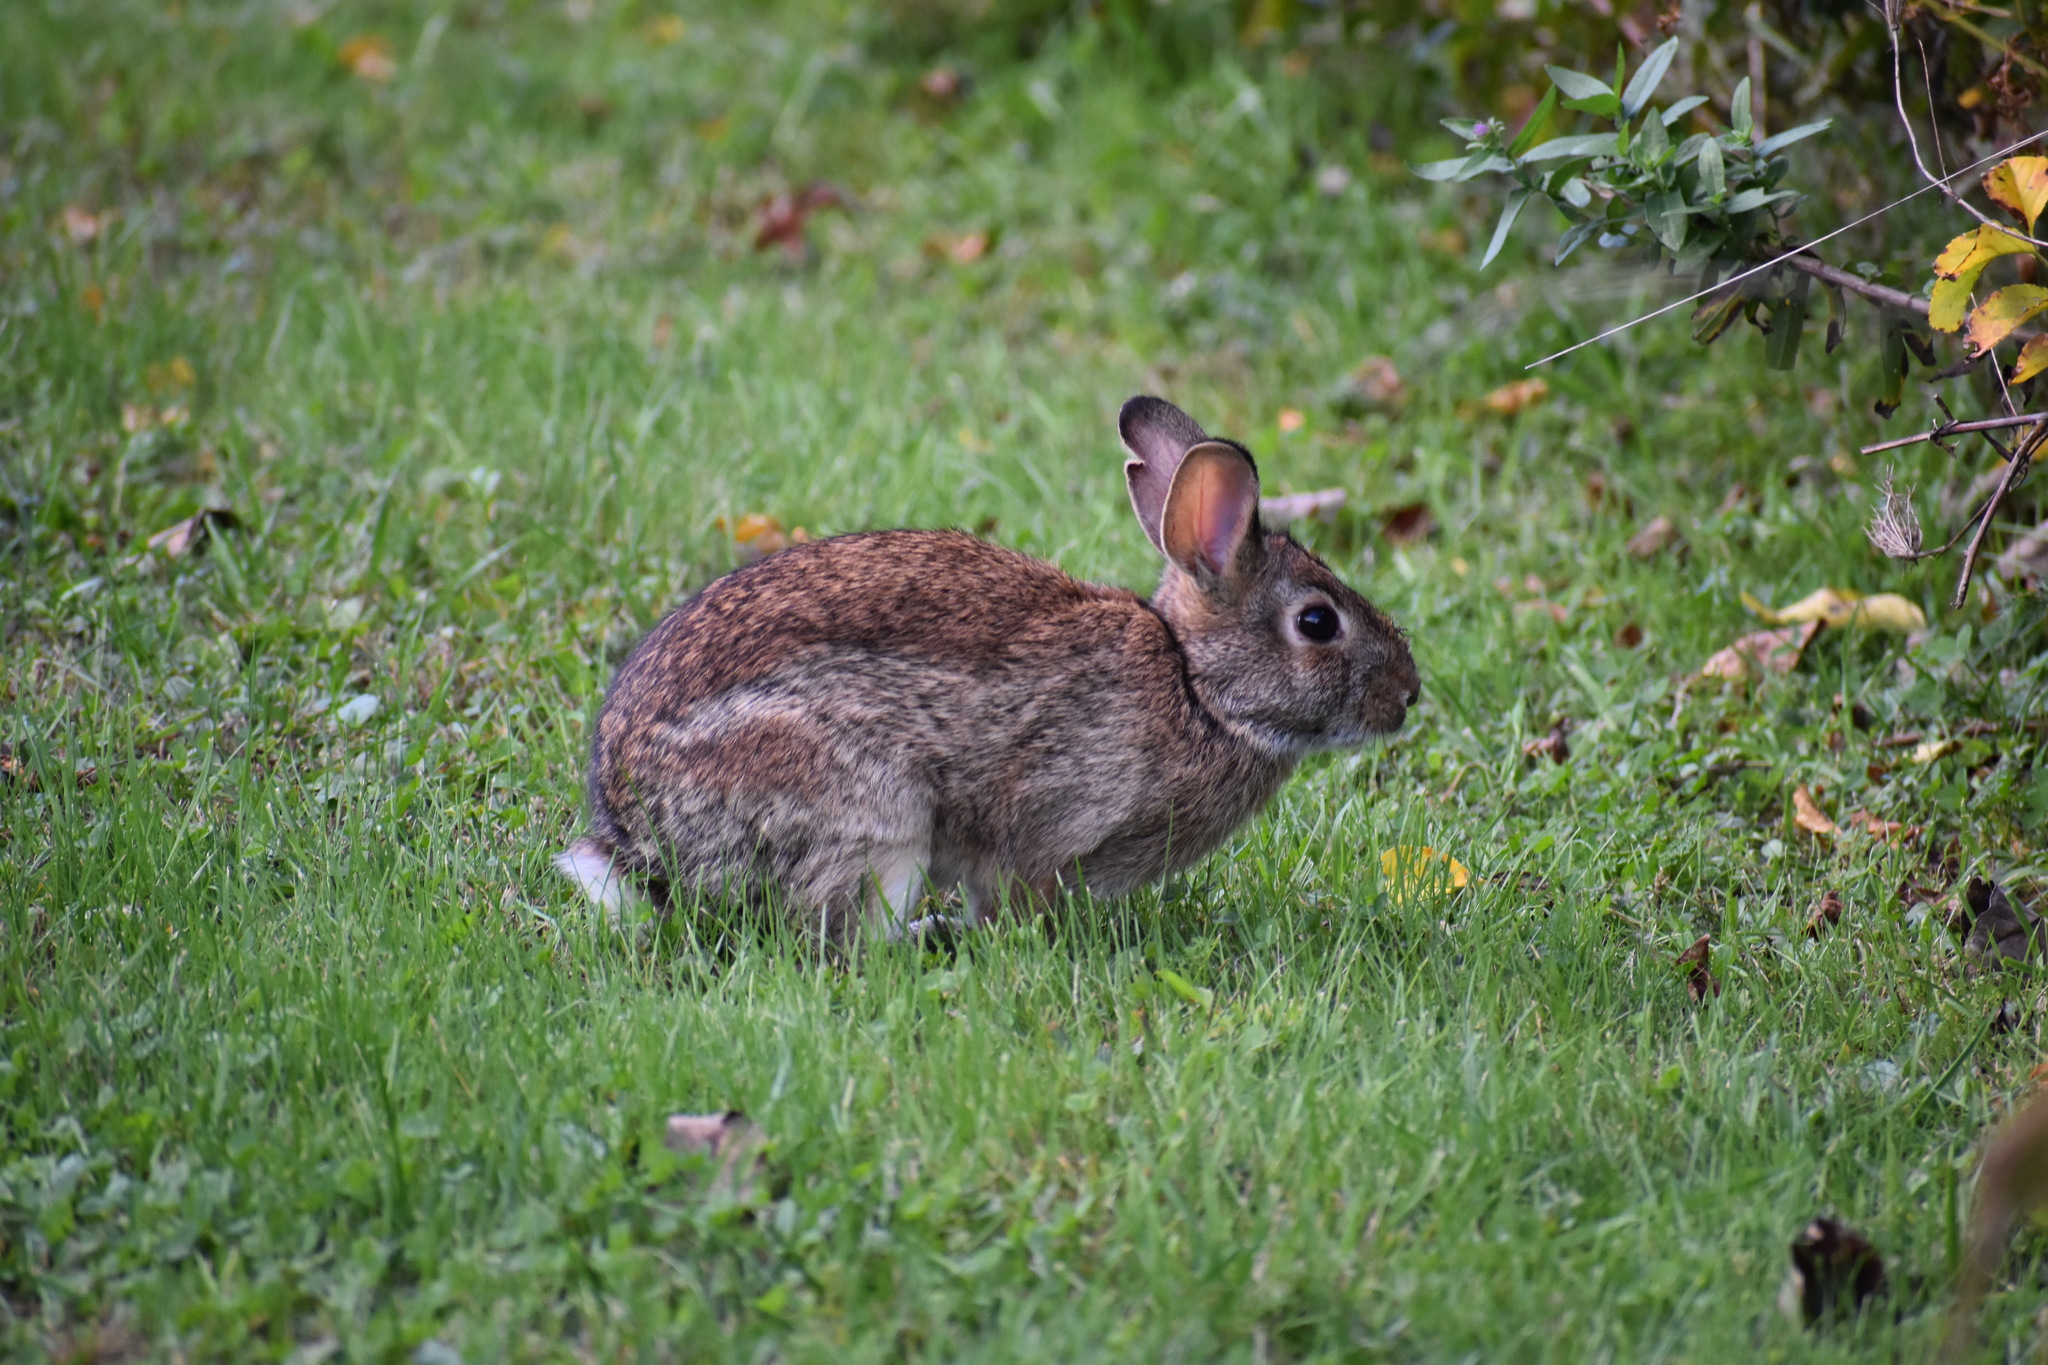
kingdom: Animalia
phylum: Chordata
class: Mammalia
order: Lagomorpha
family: Leporidae
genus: Sylvilagus
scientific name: Sylvilagus floridanus
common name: Eastern cottontail
